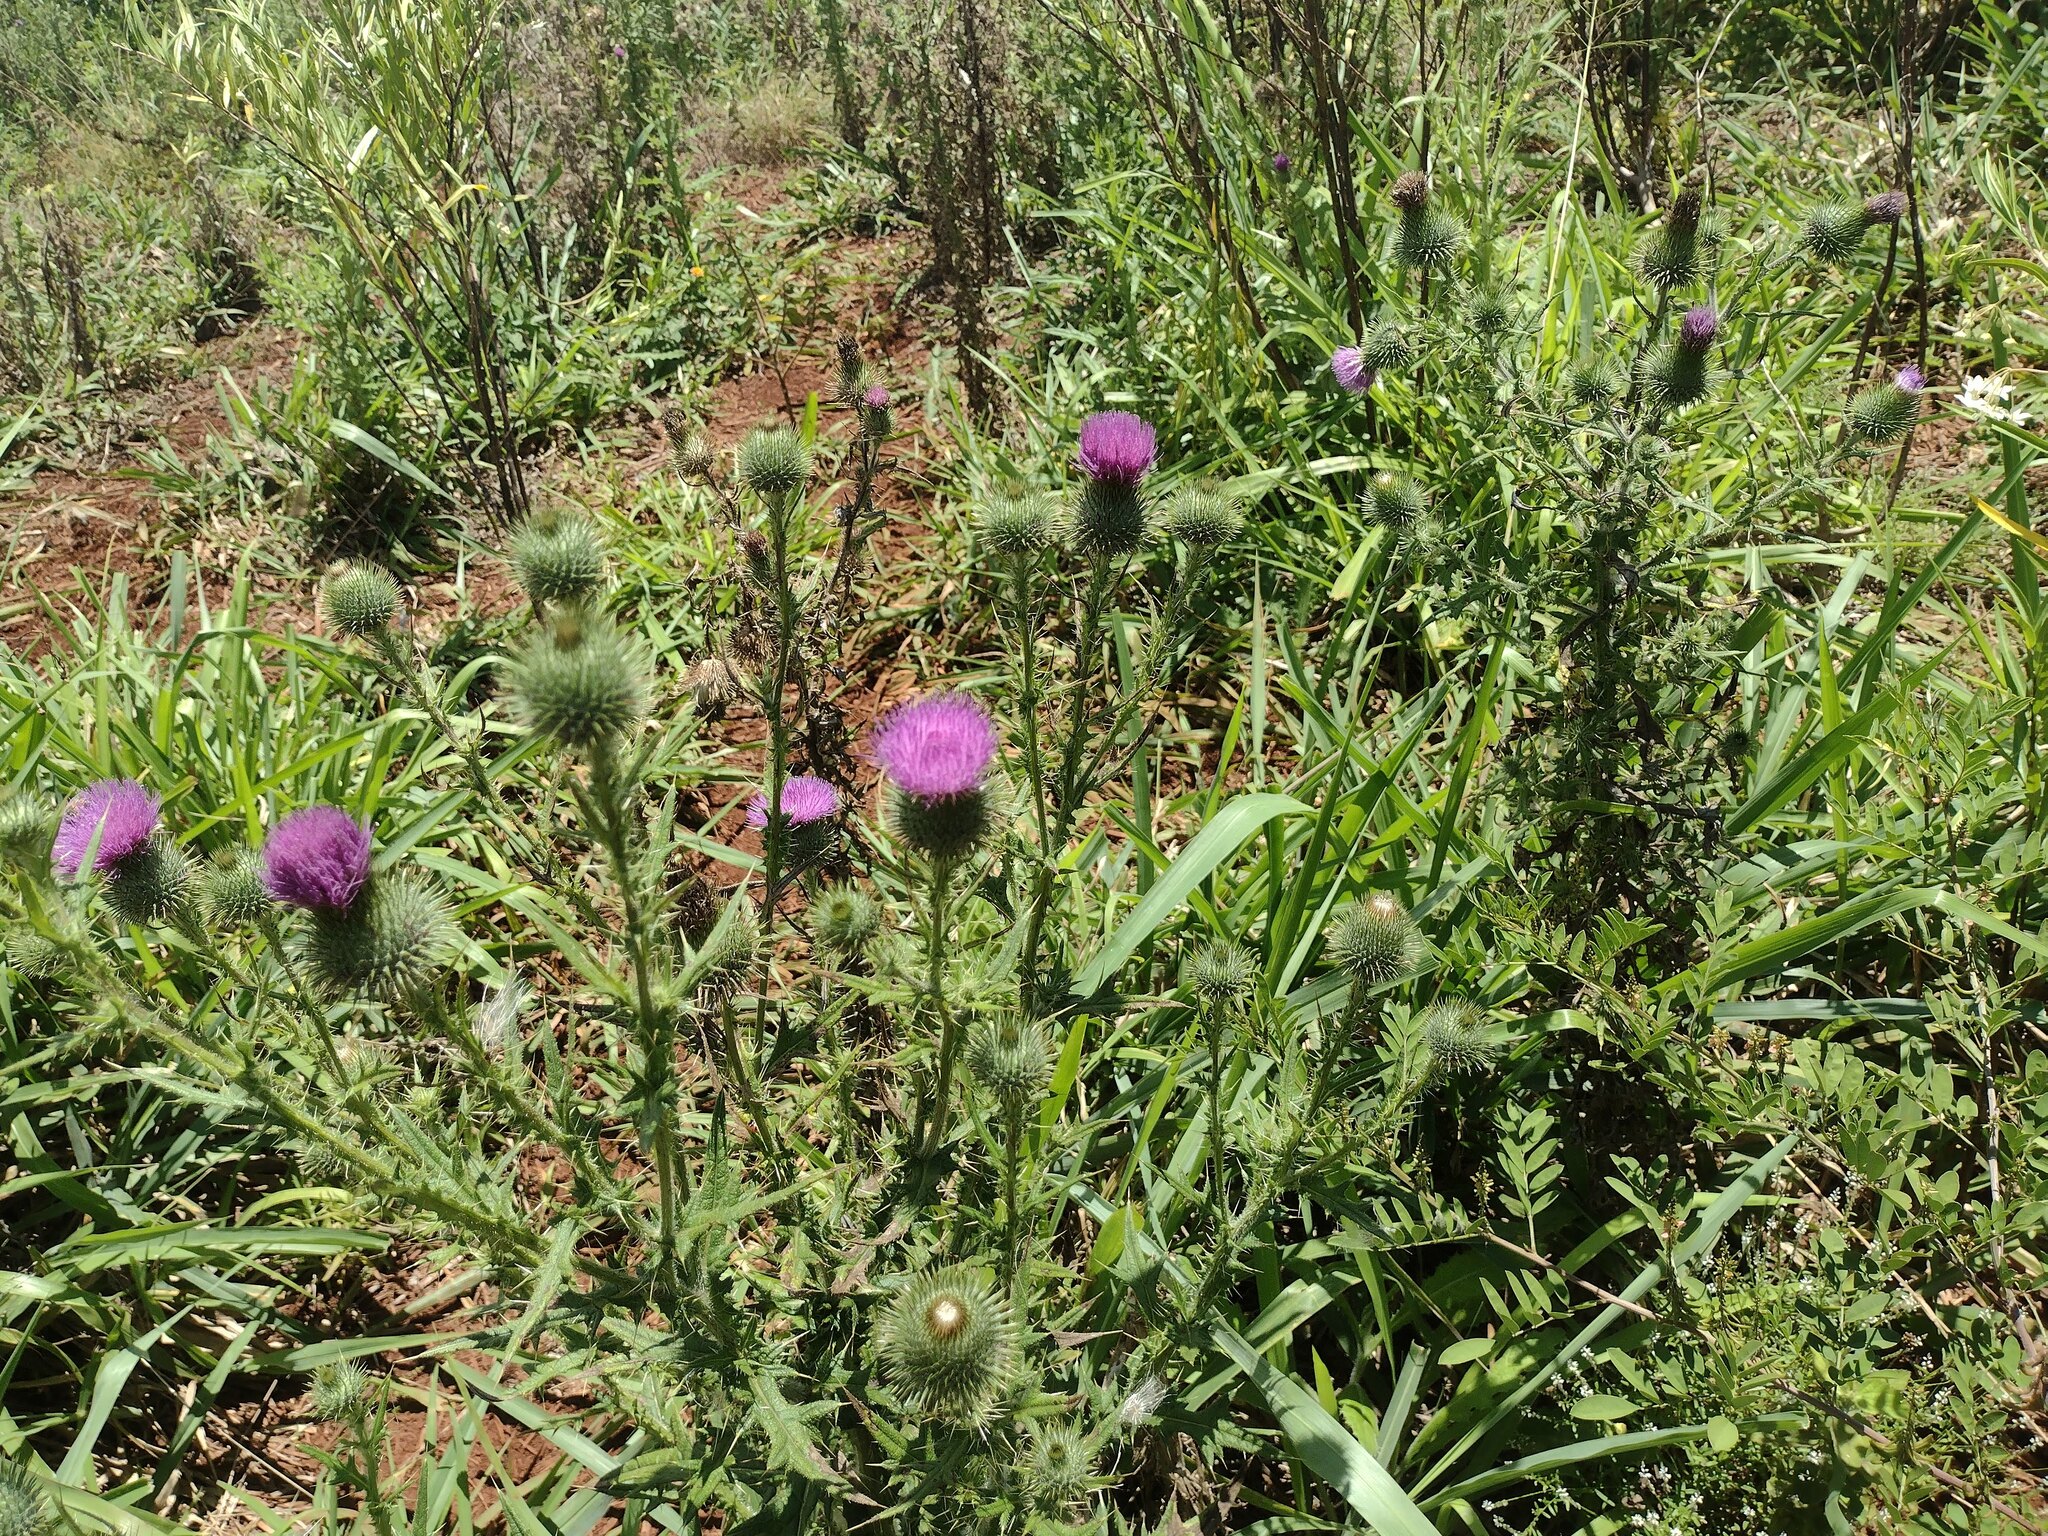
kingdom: Plantae
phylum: Tracheophyta
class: Magnoliopsida
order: Asterales
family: Asteraceae
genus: Cirsium
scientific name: Cirsium vulgare
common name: Bull thistle
